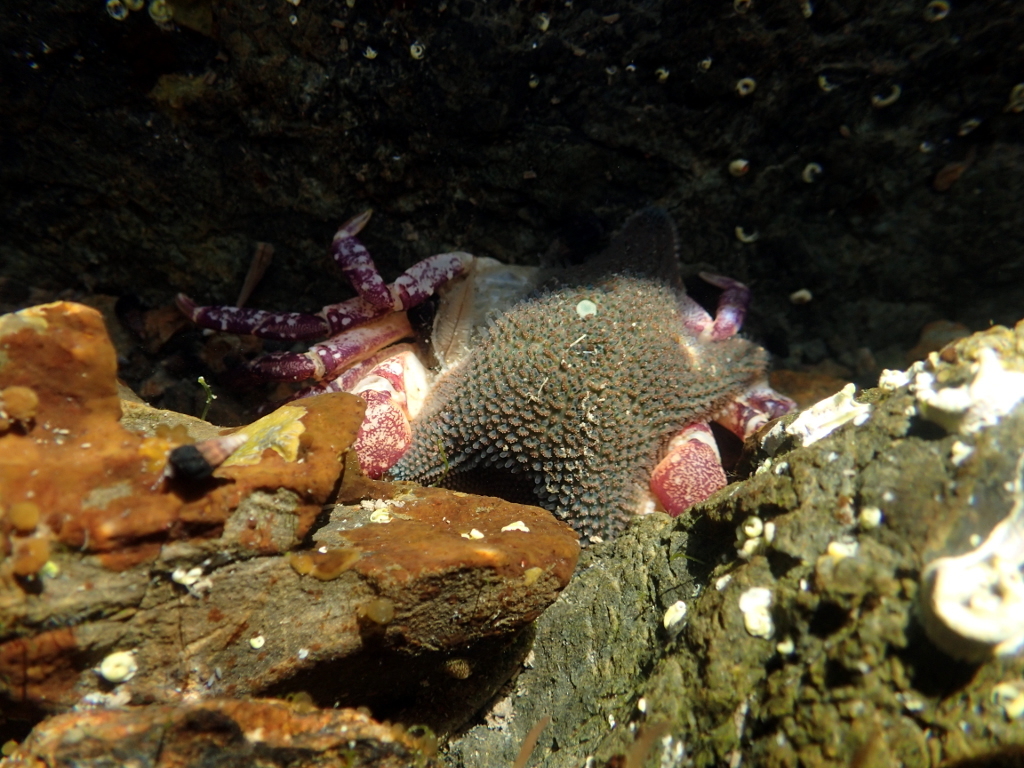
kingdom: Animalia
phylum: Echinodermata
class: Asteroidea
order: Valvatida
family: Asterinidae
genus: Patiriella
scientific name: Patiriella regularis
